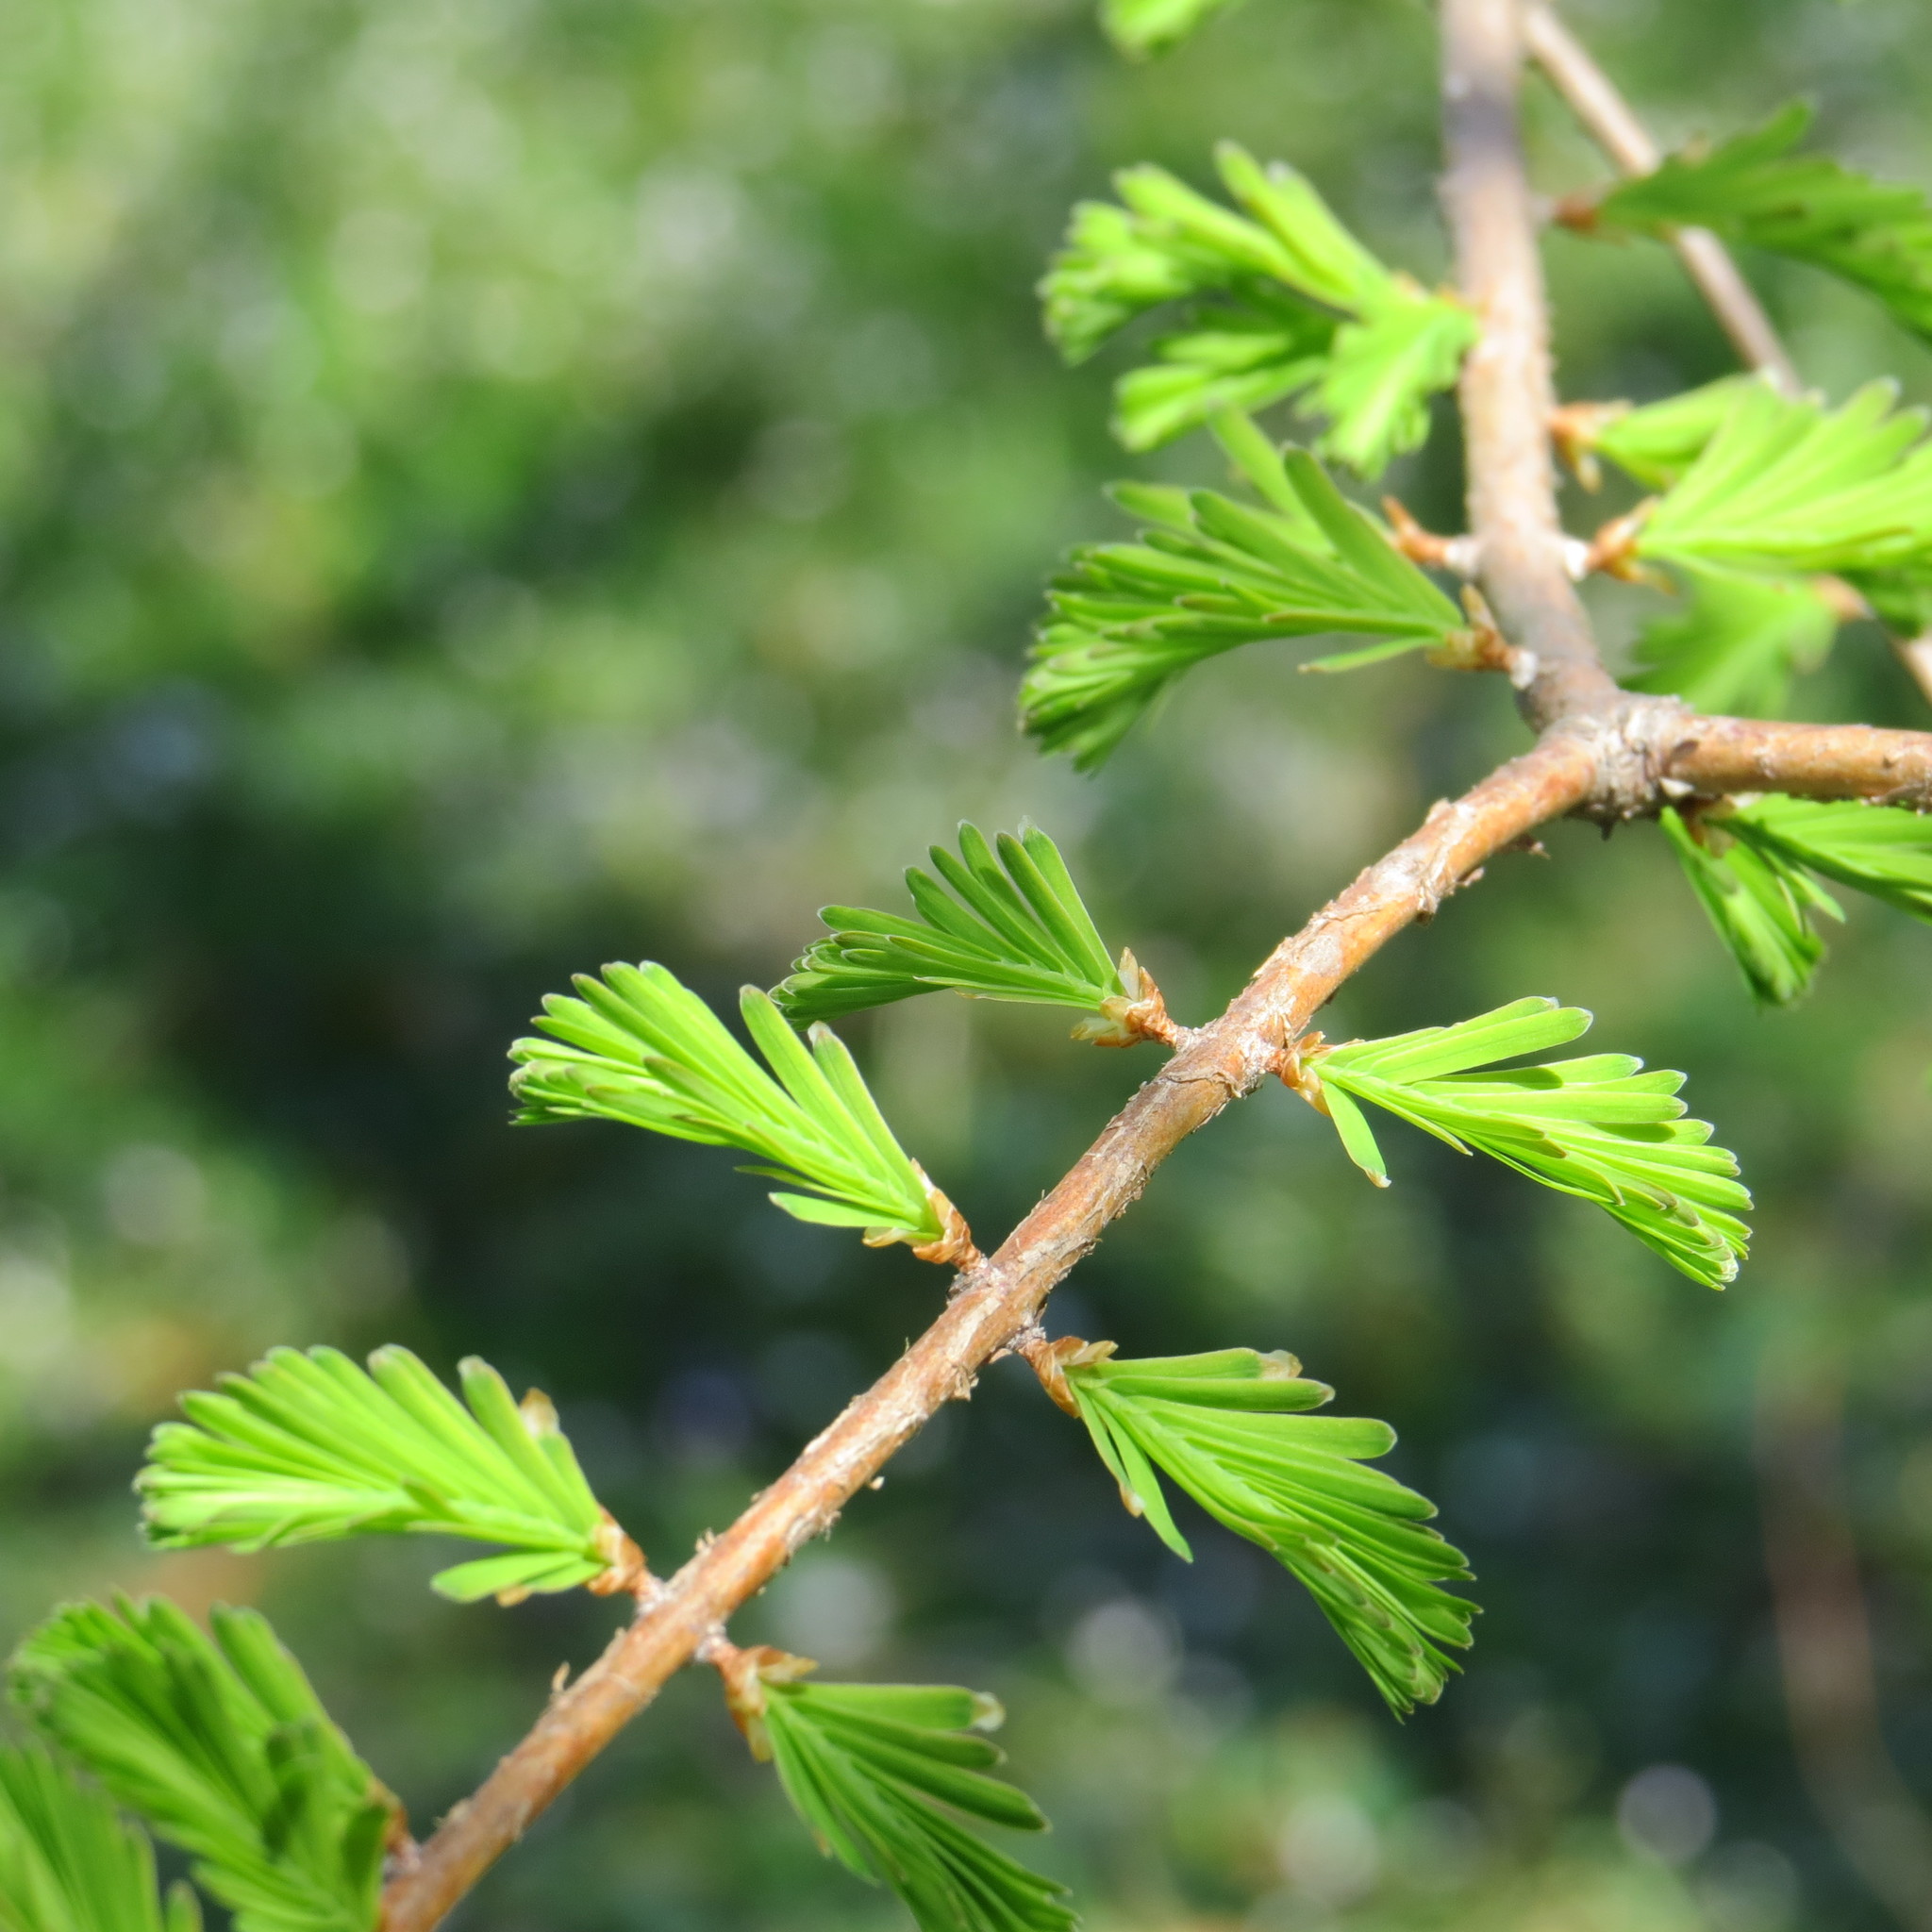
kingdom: Plantae
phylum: Tracheophyta
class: Pinopsida
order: Pinales
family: Cupressaceae
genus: Taxodium
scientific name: Taxodium distichum
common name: Bald cypress
